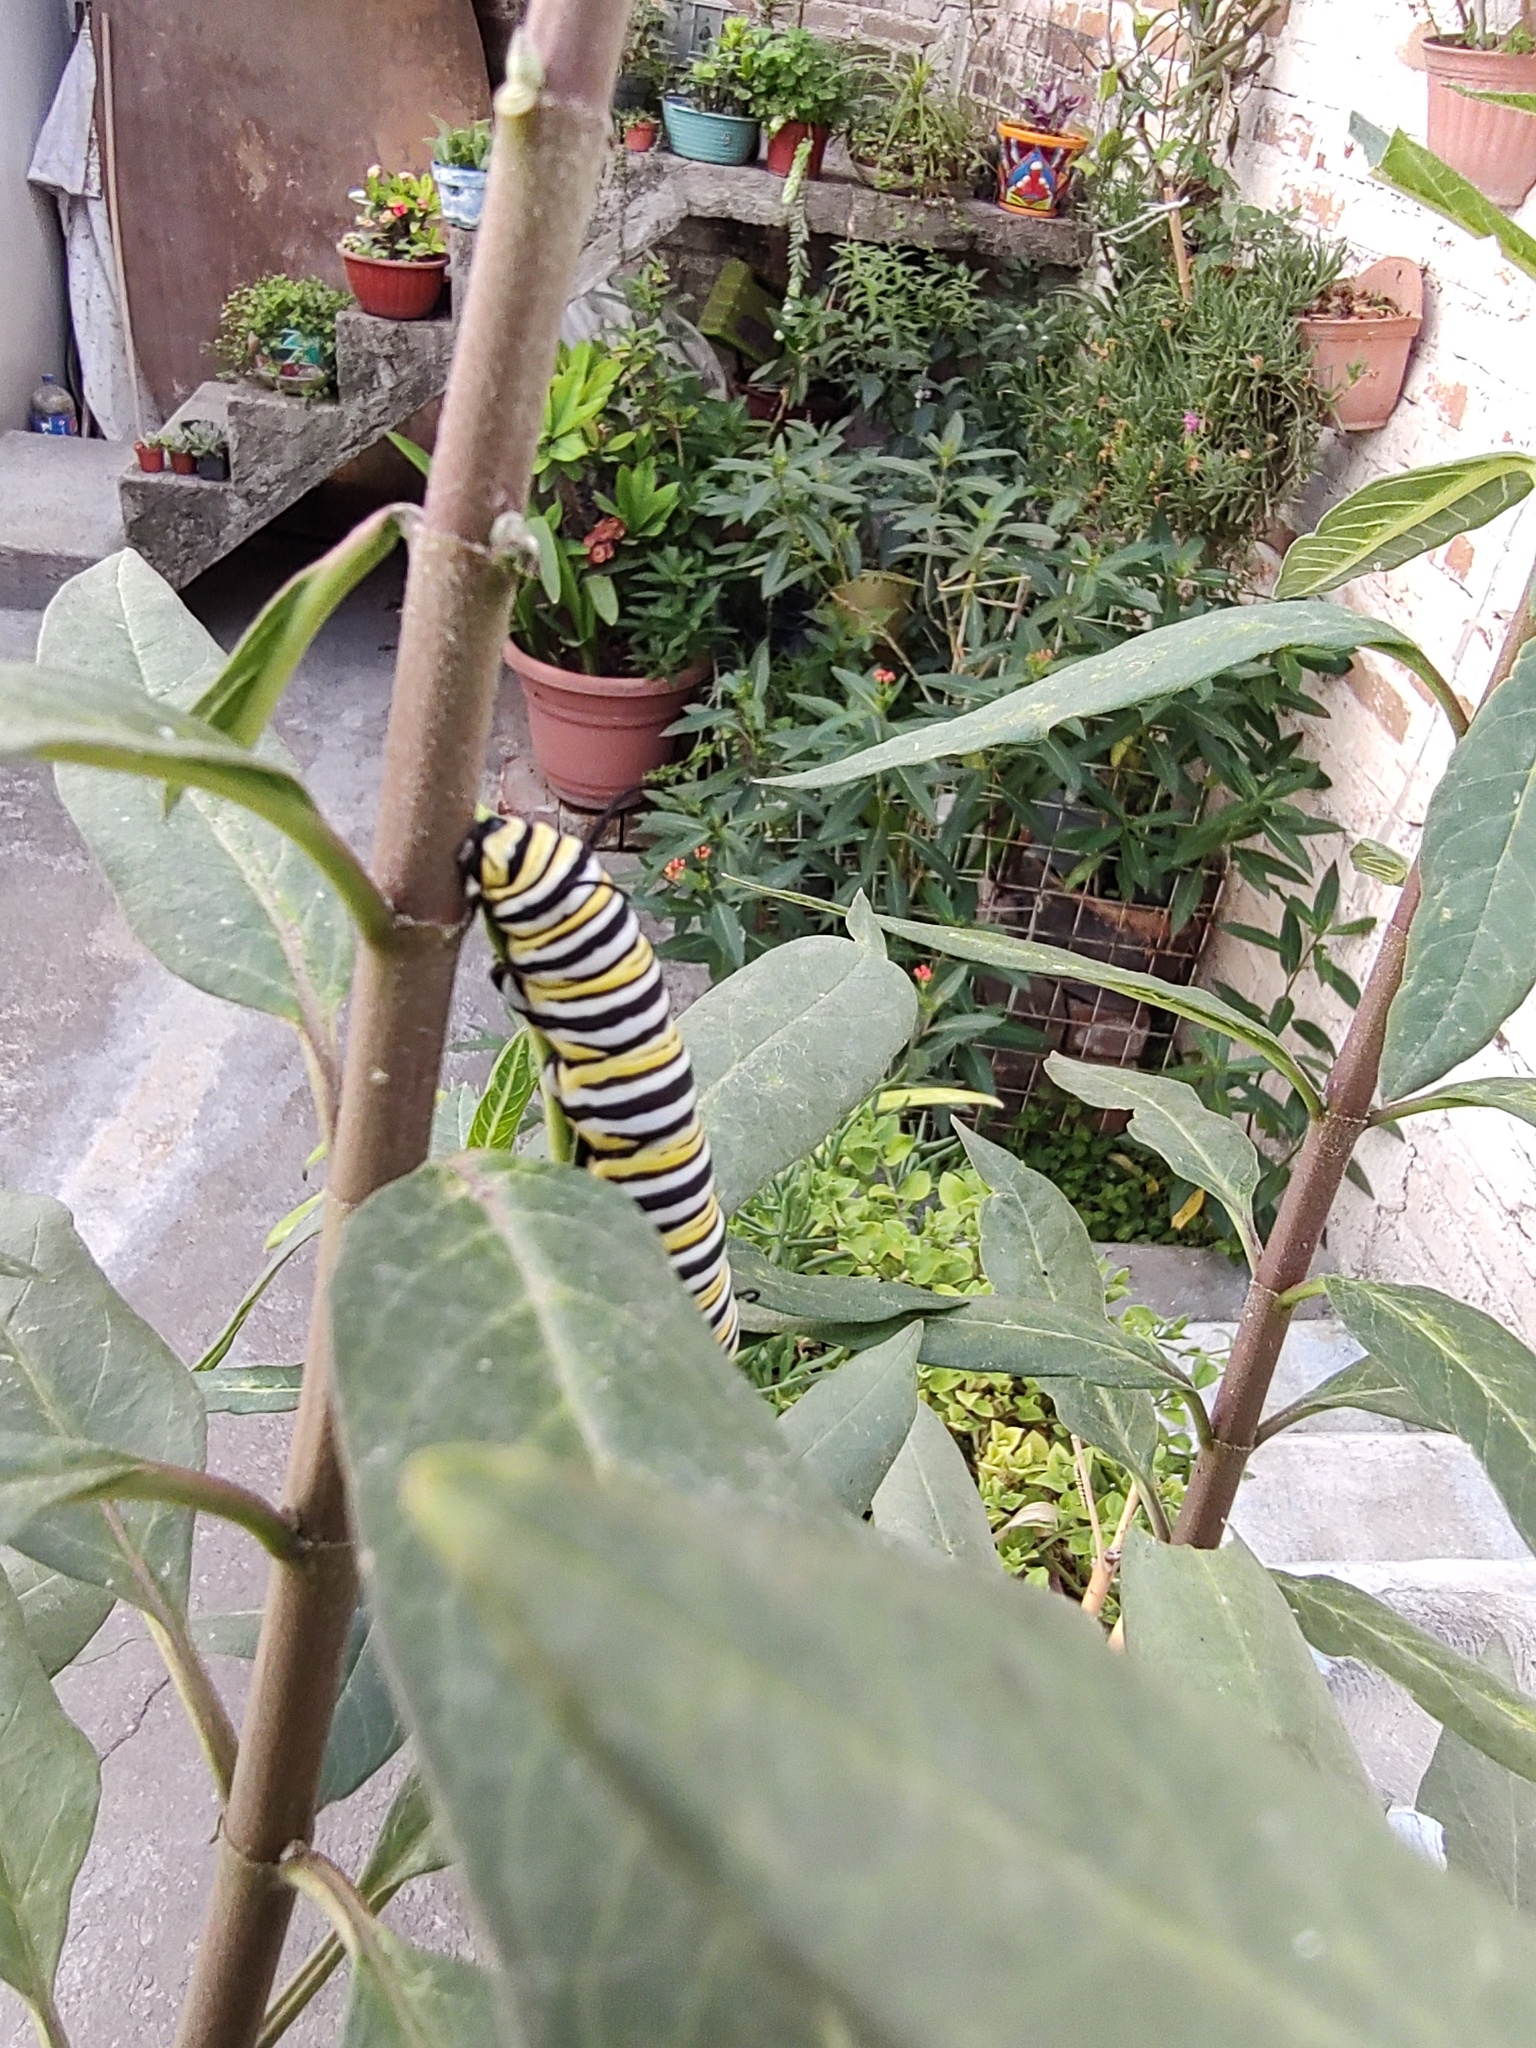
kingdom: Animalia
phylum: Arthropoda
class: Insecta
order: Lepidoptera
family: Nymphalidae
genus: Danaus
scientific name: Danaus plexippus
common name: Monarch
